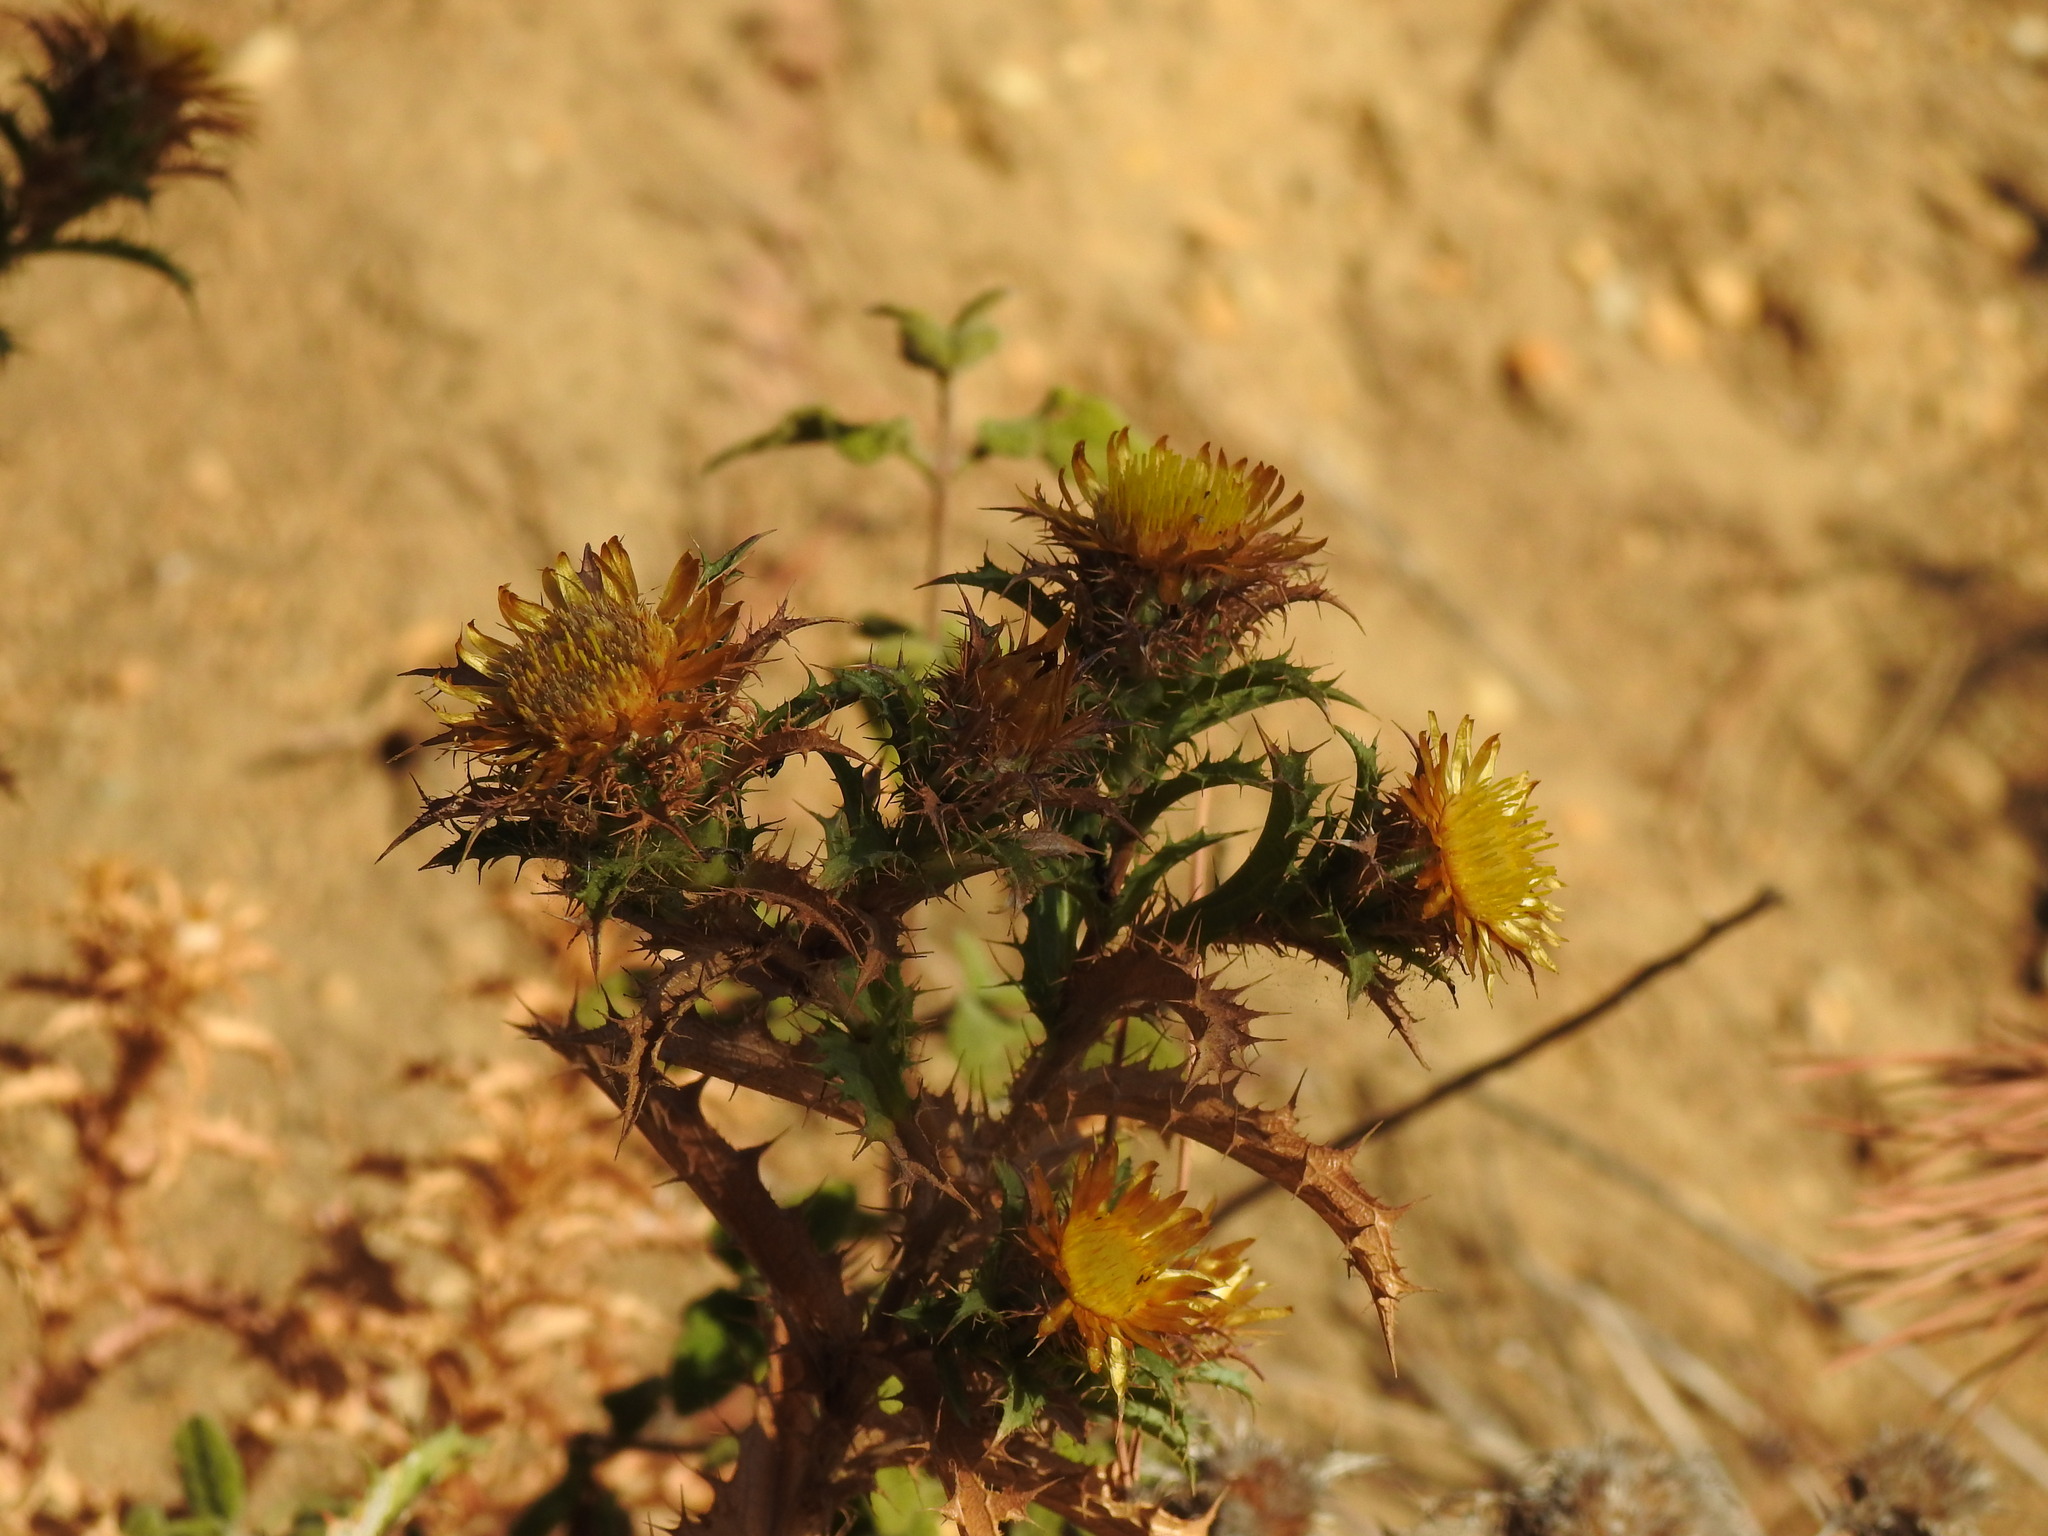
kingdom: Plantae
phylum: Tracheophyta
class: Magnoliopsida
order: Asterales
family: Asteraceae
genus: Carlina
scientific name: Carlina hispanica
